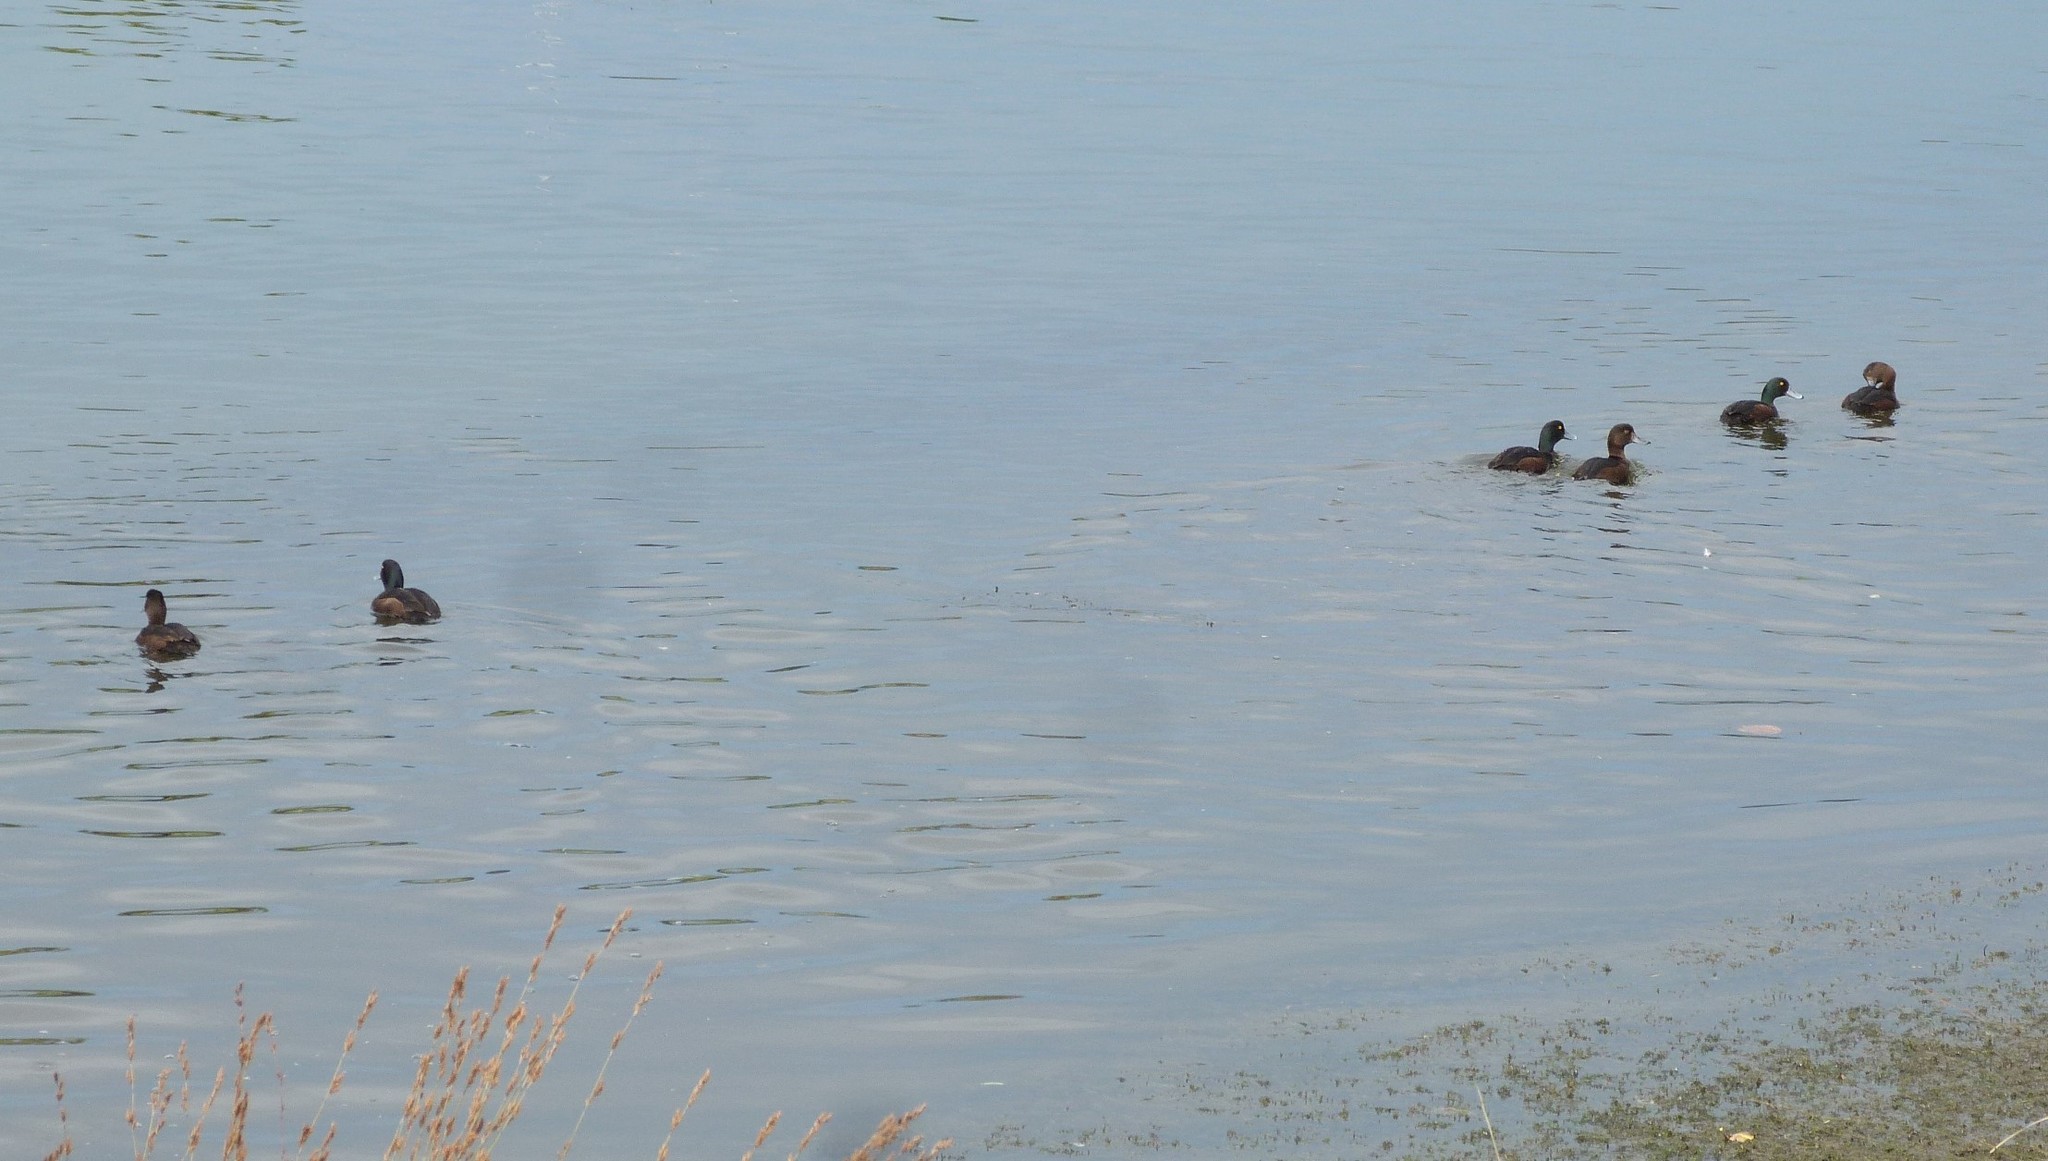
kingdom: Animalia
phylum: Chordata
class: Aves
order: Anseriformes
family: Anatidae
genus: Aythya
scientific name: Aythya novaeseelandiae
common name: New zealand scaup
